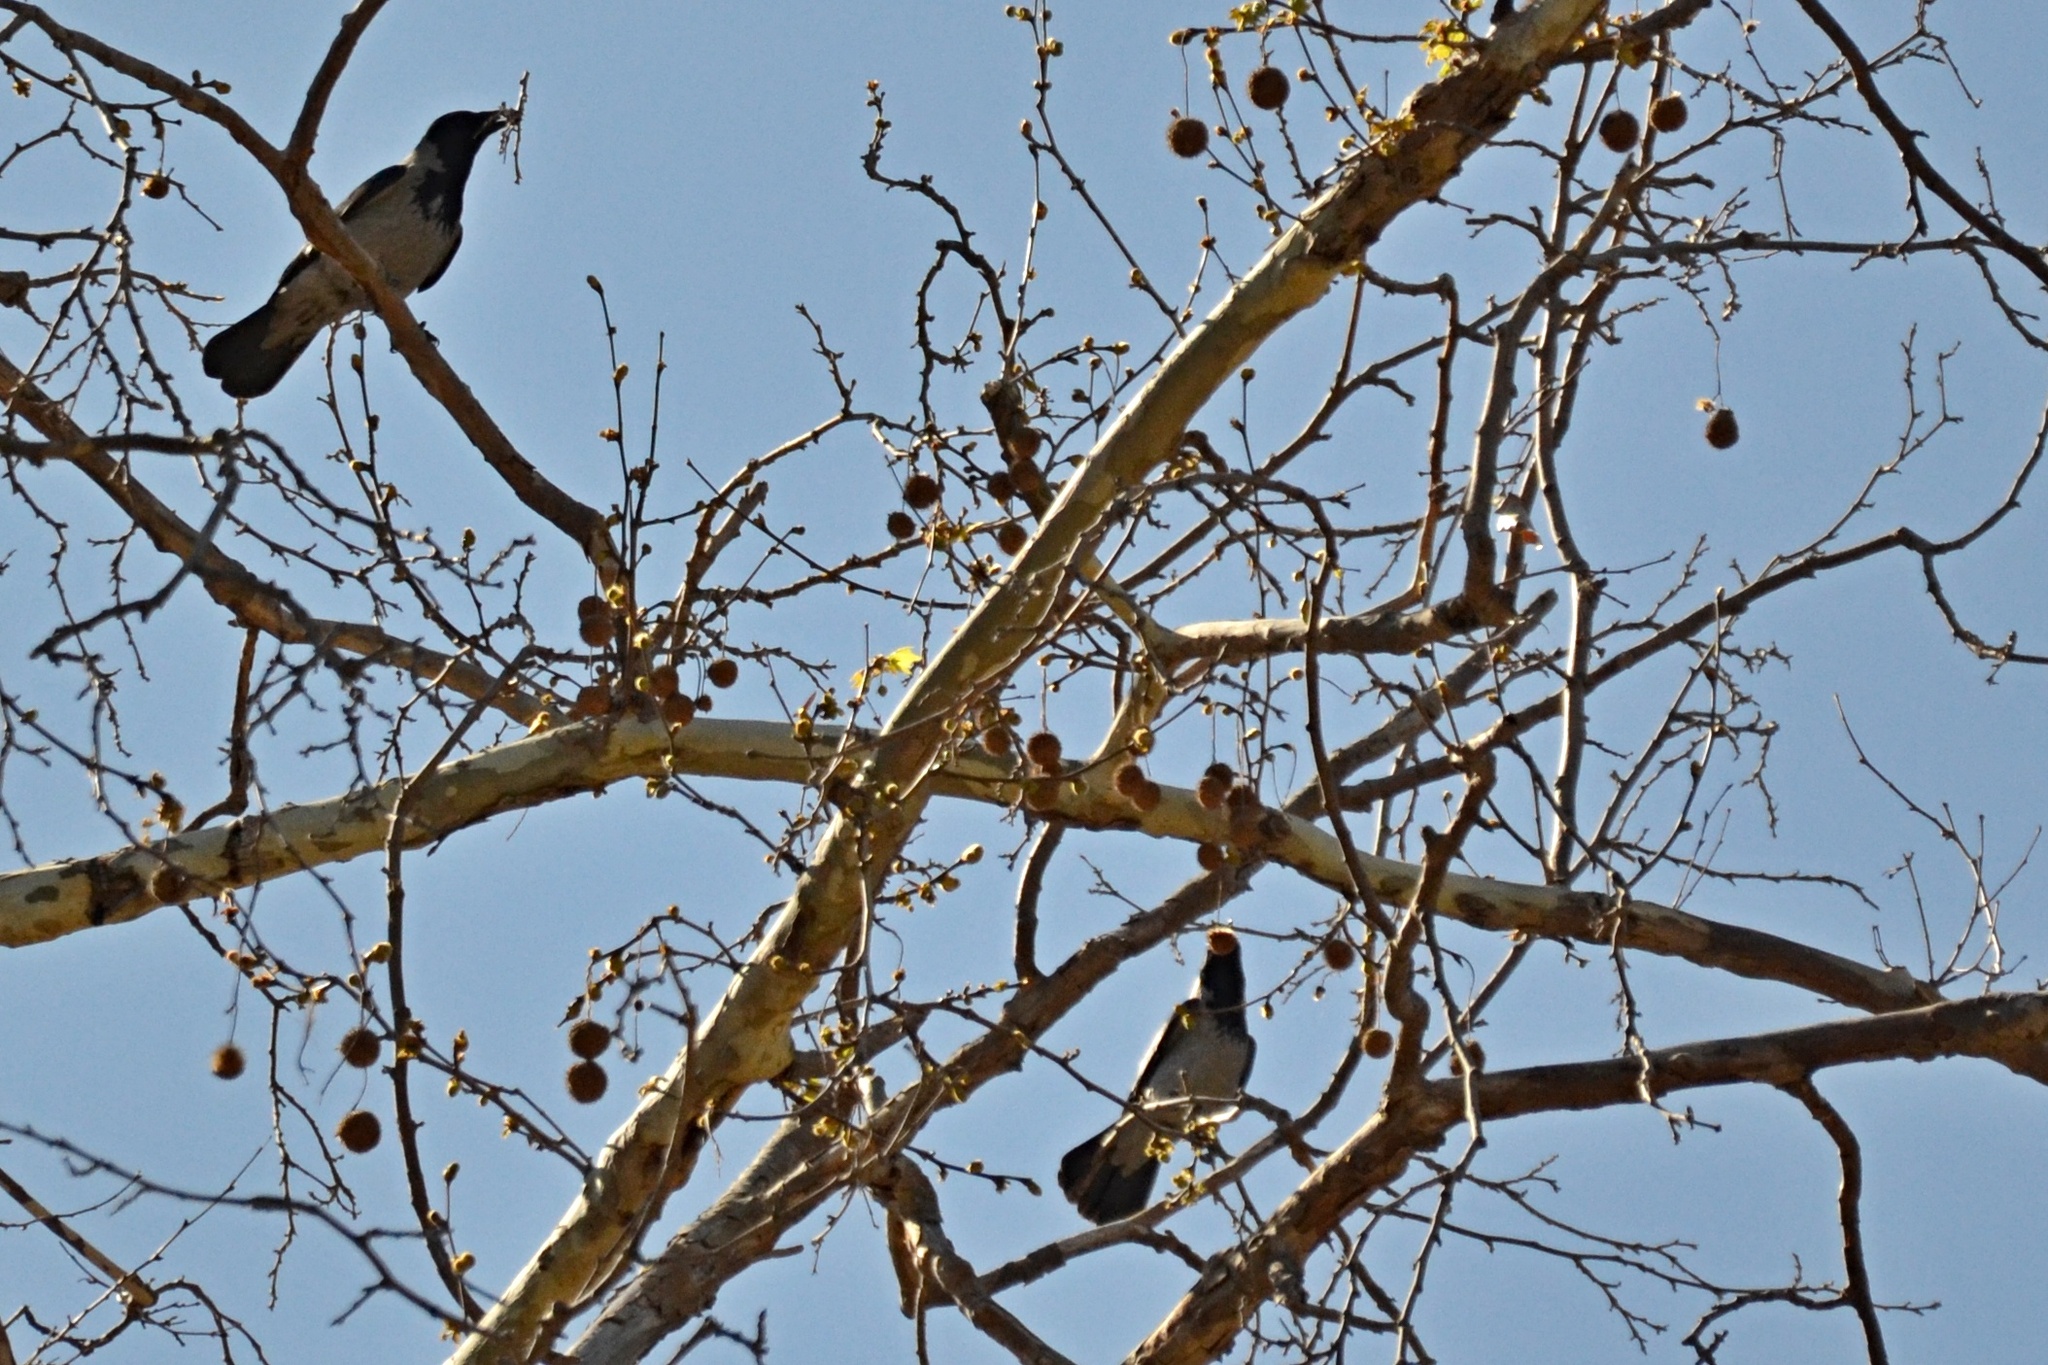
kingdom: Animalia
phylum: Chordata
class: Aves
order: Passeriformes
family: Corvidae
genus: Corvus
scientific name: Corvus cornix
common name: Hooded crow
